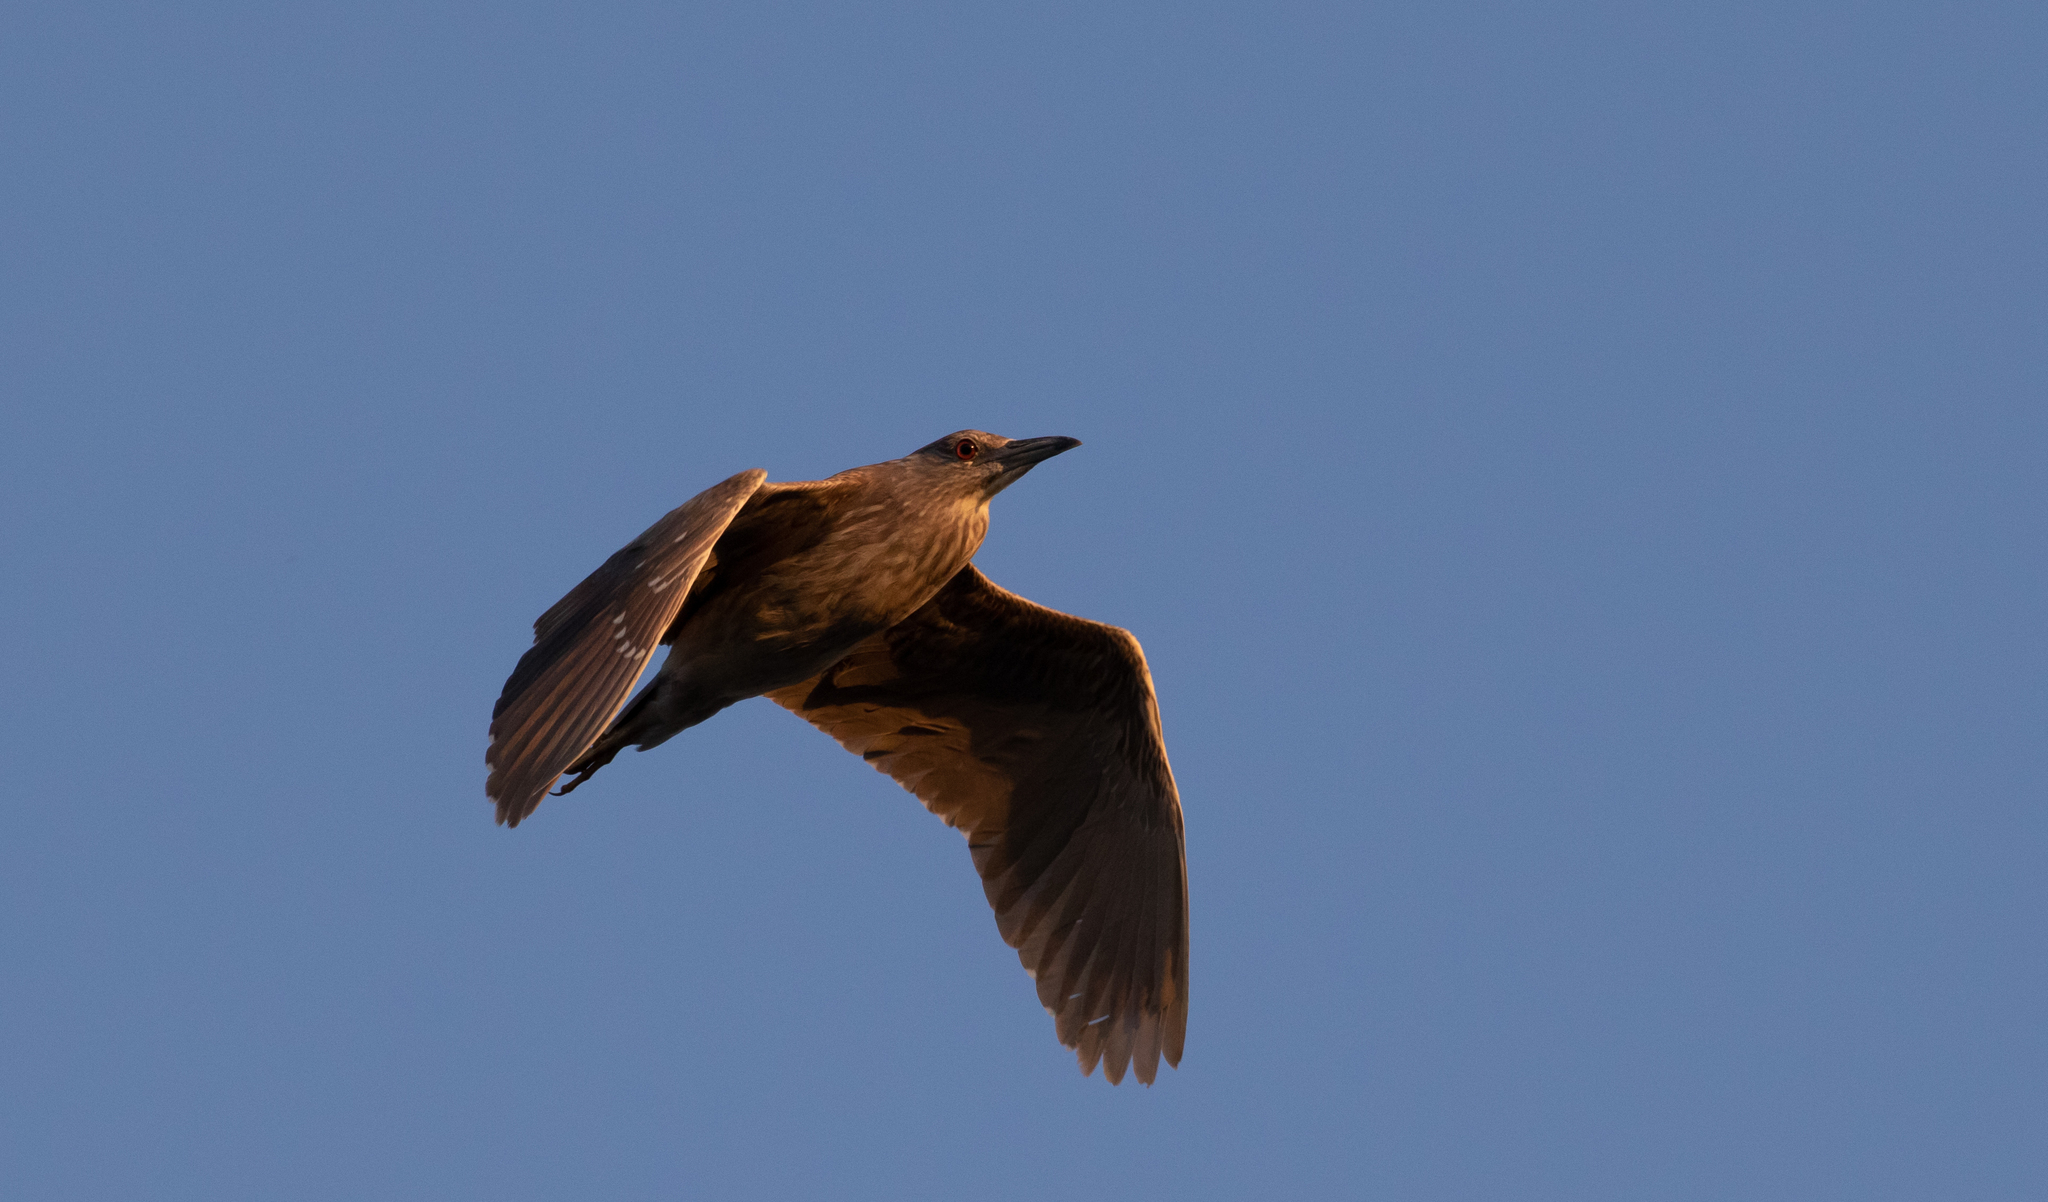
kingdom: Animalia
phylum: Chordata
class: Aves
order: Pelecaniformes
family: Ardeidae
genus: Nycticorax
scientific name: Nycticorax nycticorax
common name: Black-crowned night heron
